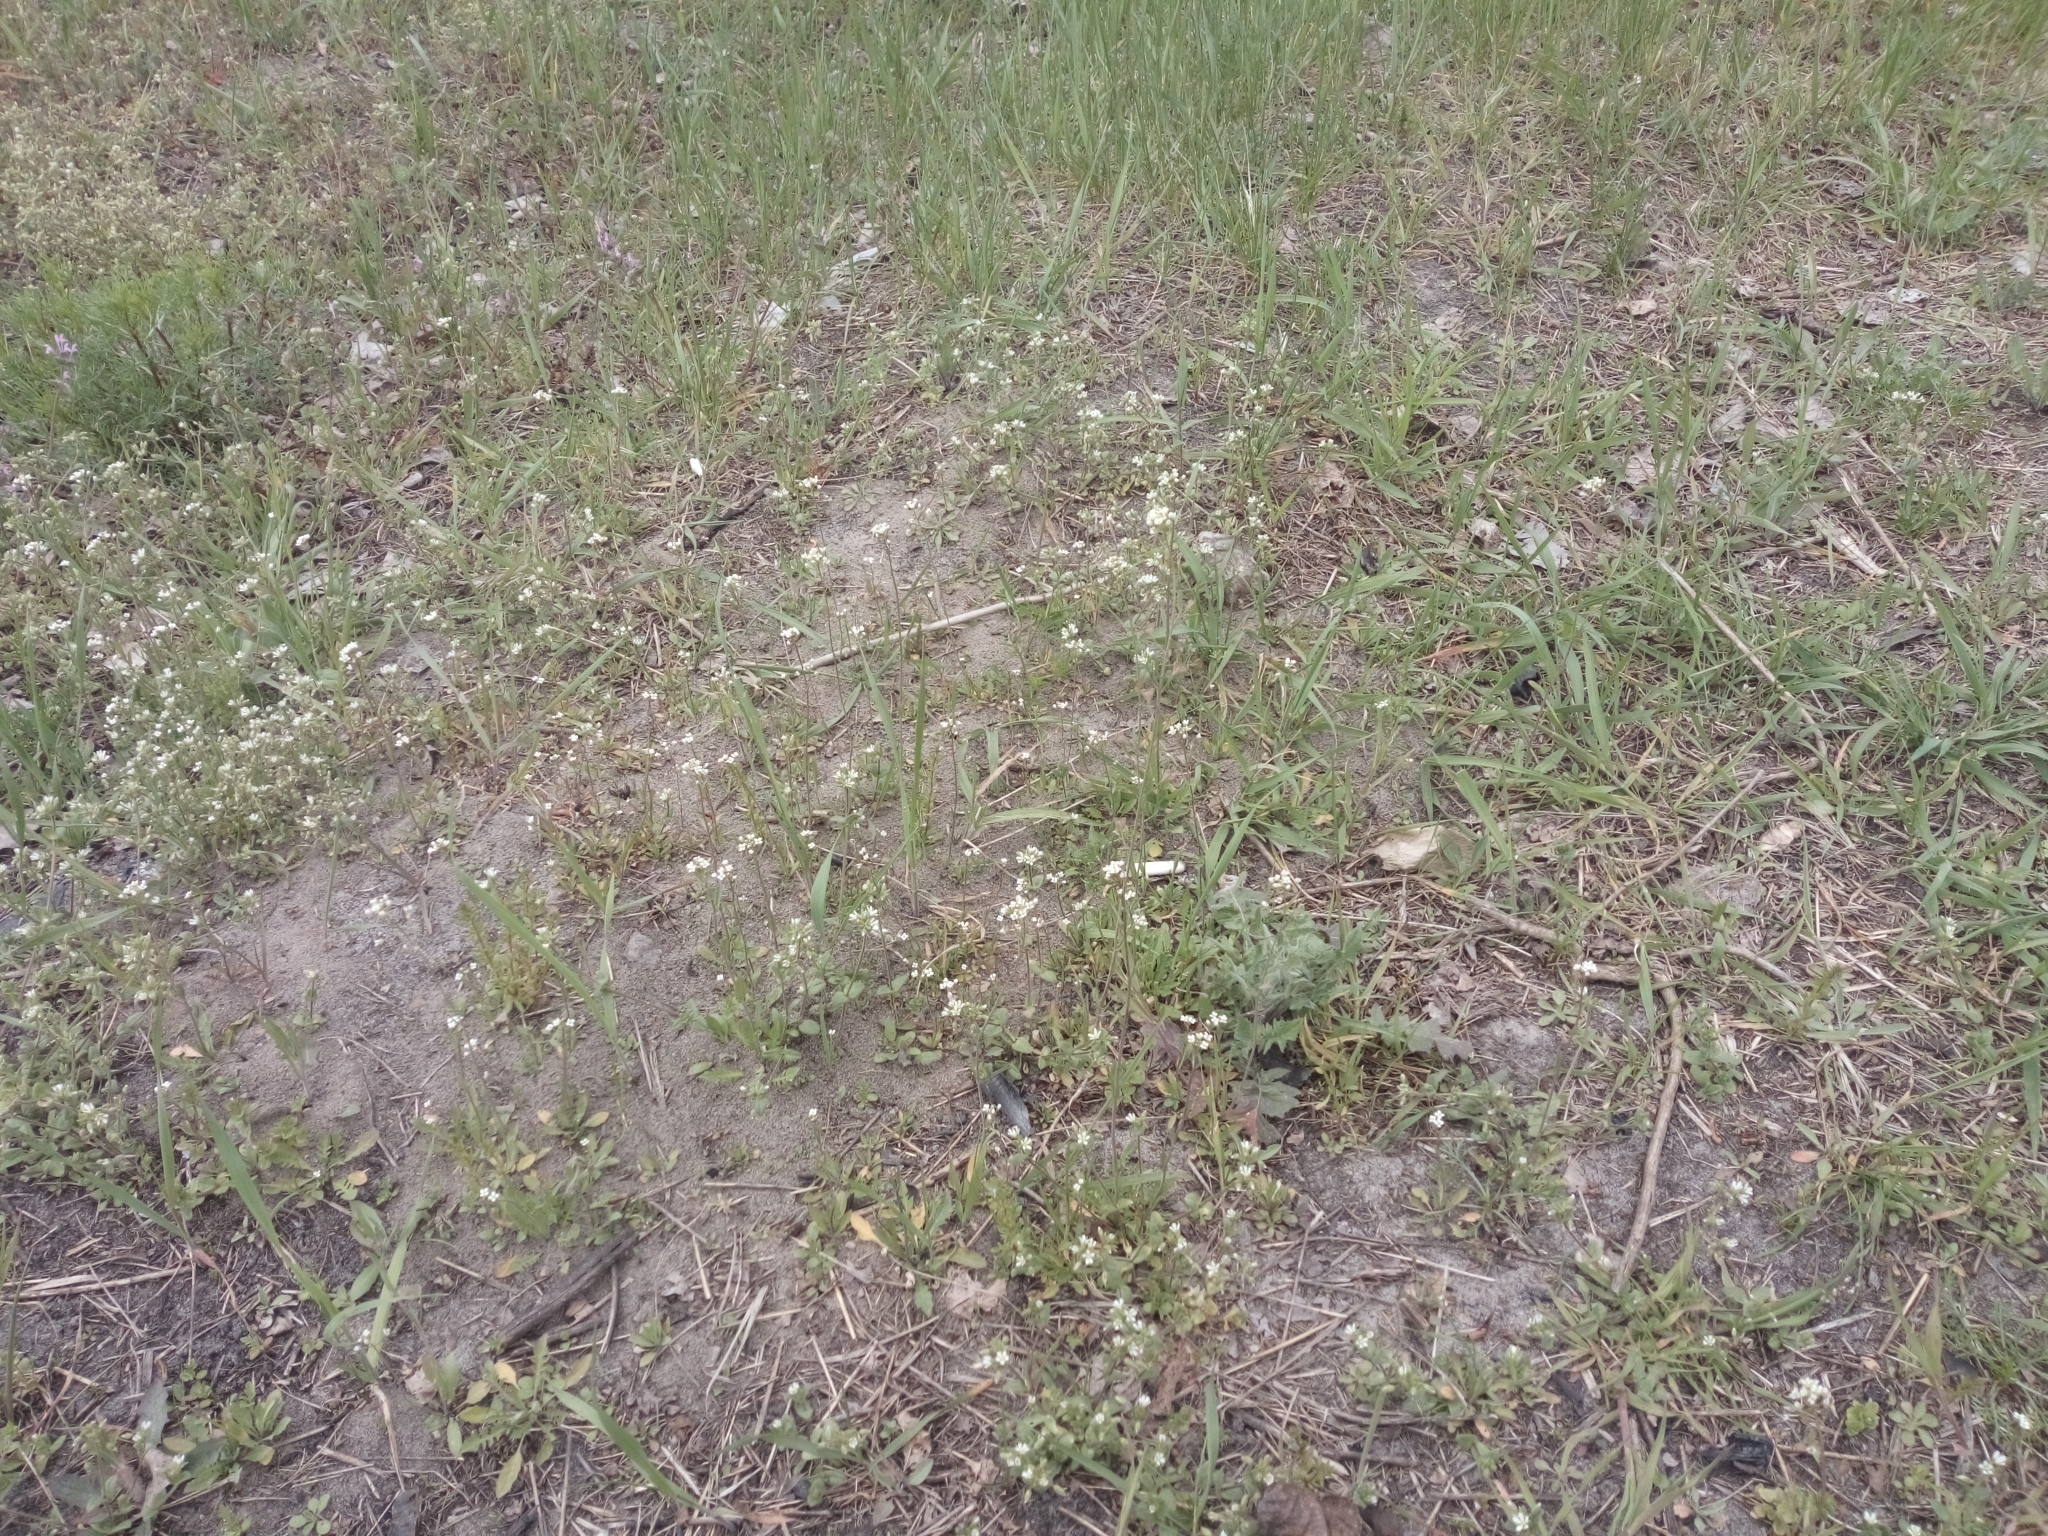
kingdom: Plantae
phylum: Tracheophyta
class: Magnoliopsida
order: Brassicales
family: Brassicaceae
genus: Capsella
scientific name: Capsella bursa-pastoris
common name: Shepherd's purse
